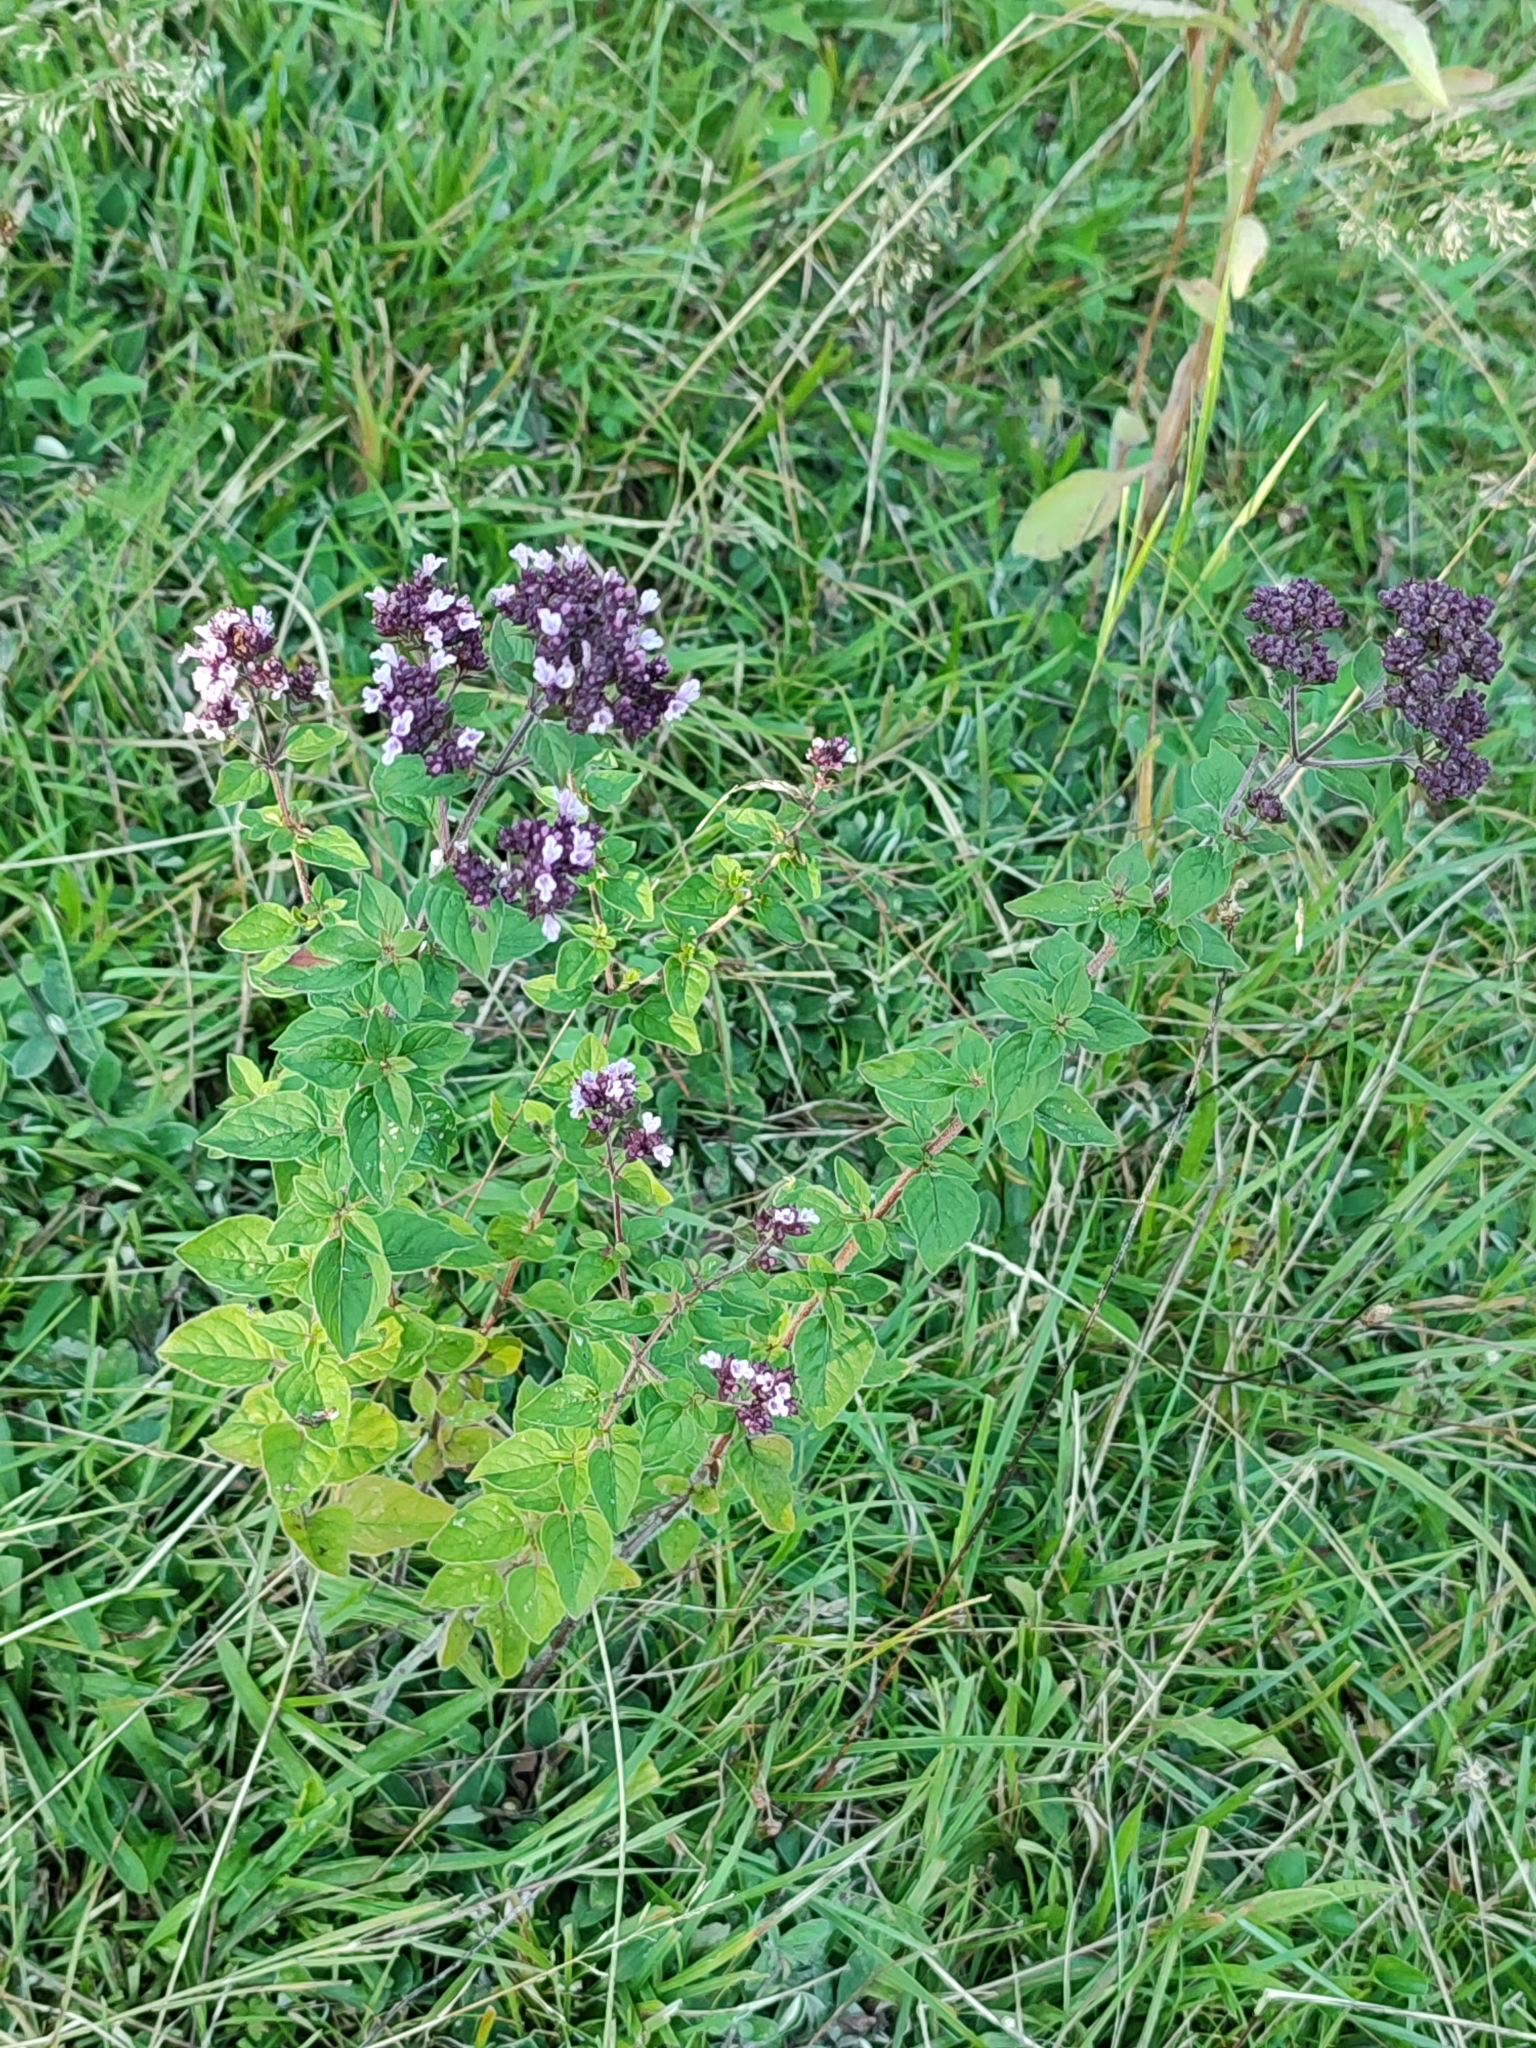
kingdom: Plantae
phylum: Tracheophyta
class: Magnoliopsida
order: Lamiales
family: Lamiaceae
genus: Origanum
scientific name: Origanum vulgare
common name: Wild marjoram
